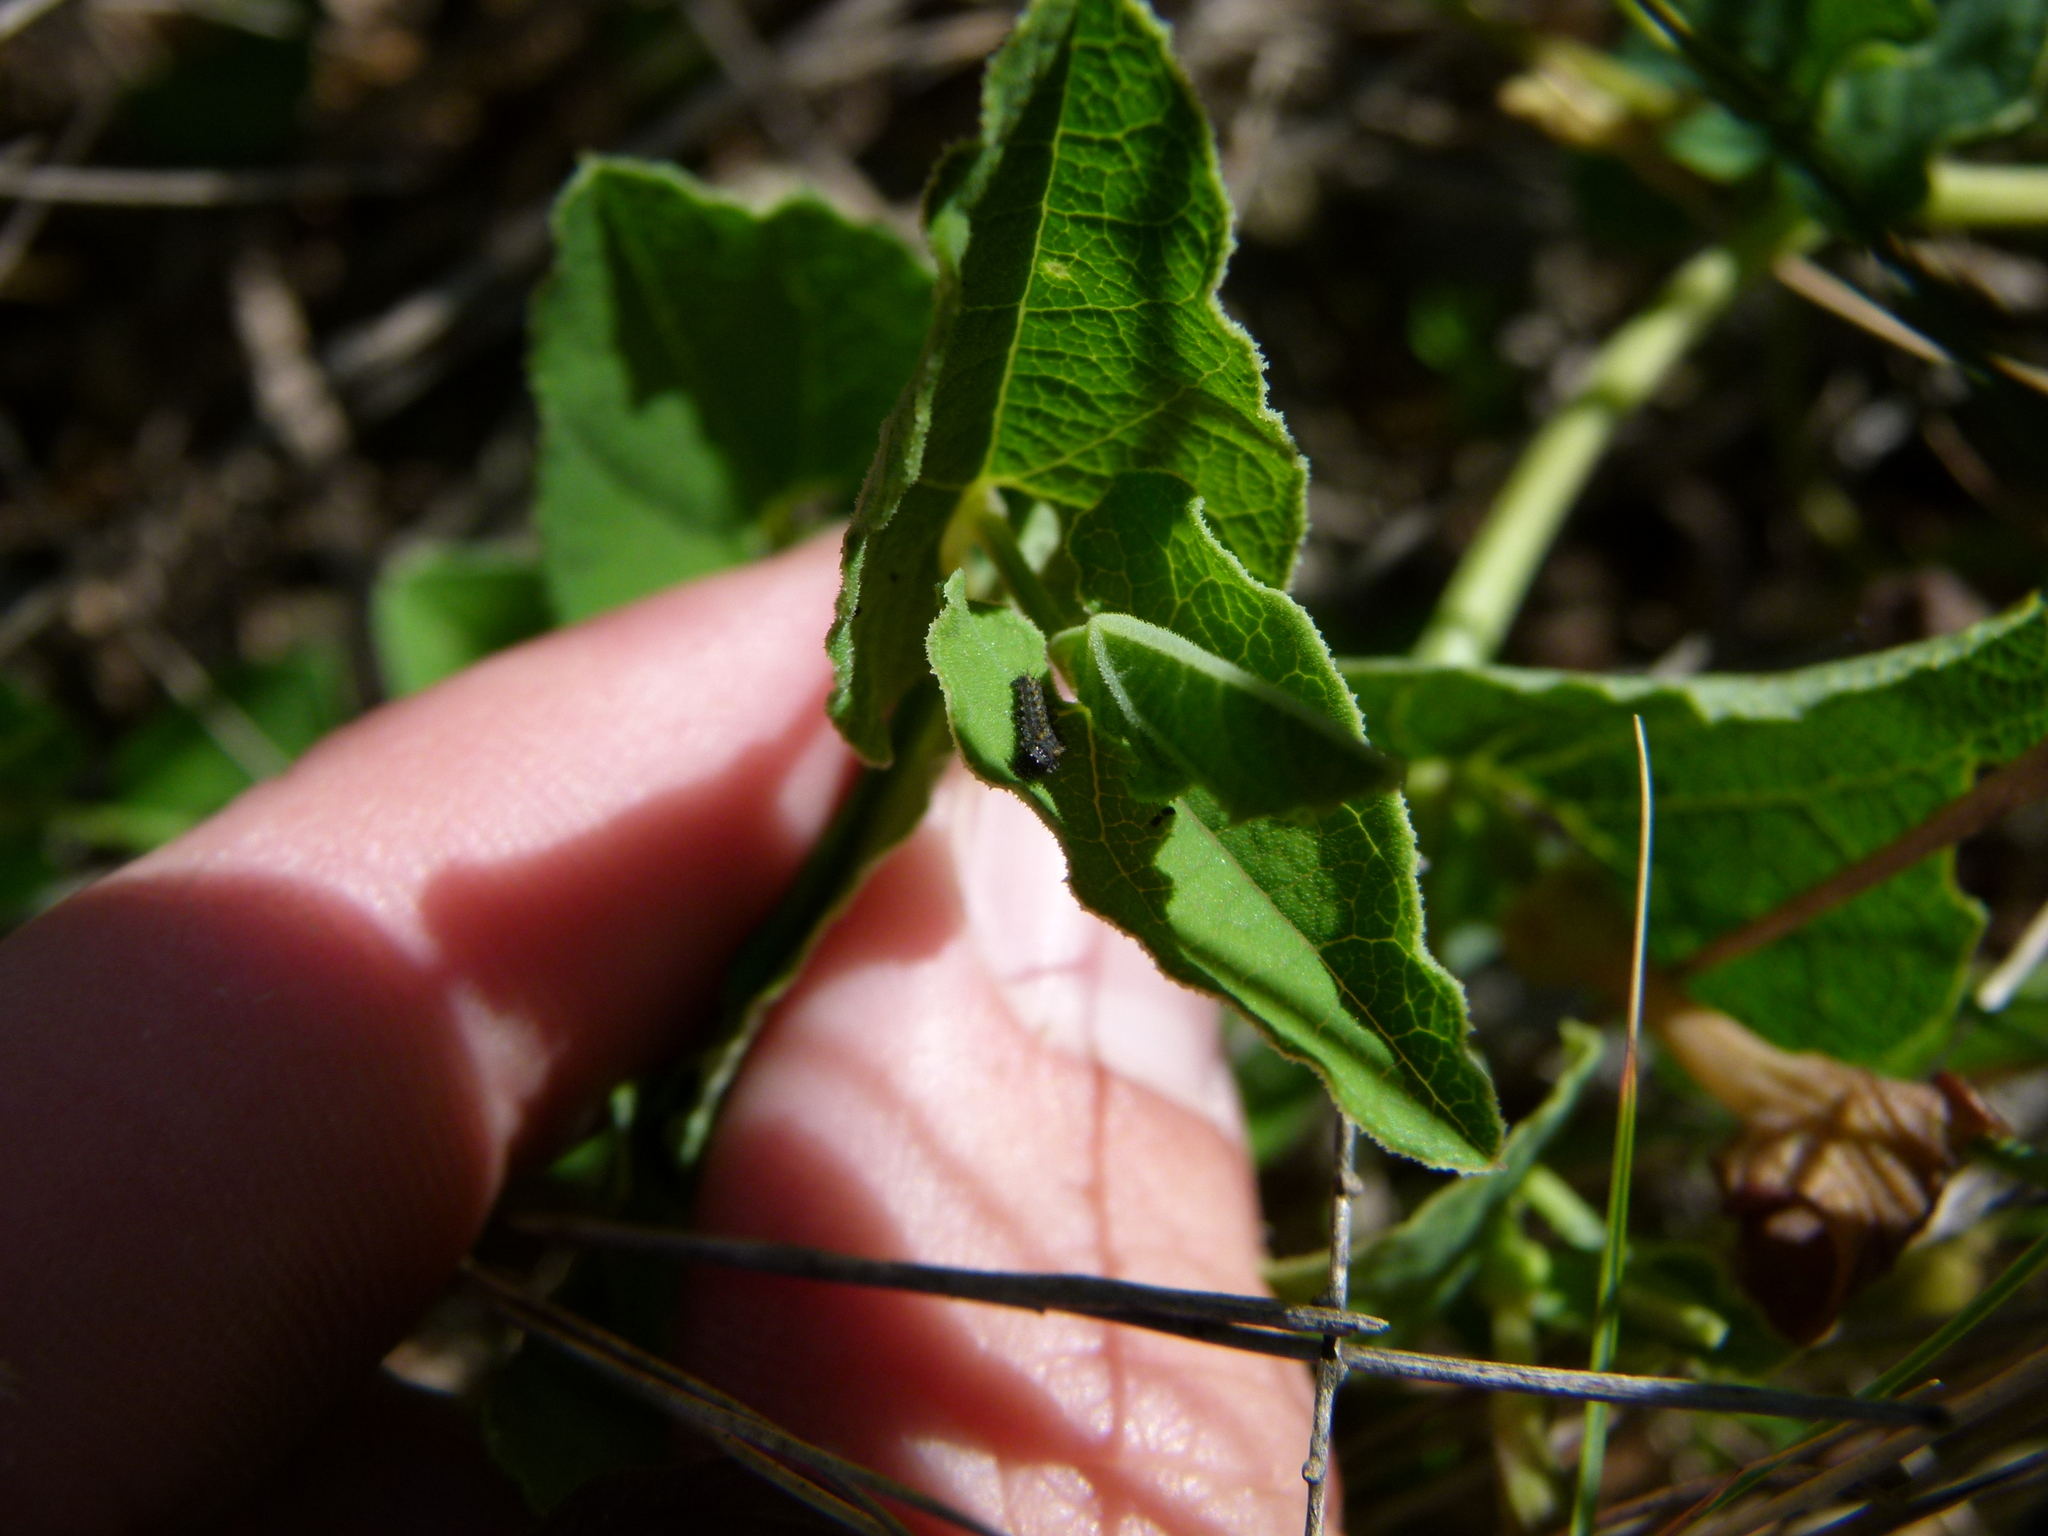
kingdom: Animalia
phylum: Arthropoda
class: Insecta
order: Lepidoptera
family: Papilionidae
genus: Zerynthia
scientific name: Zerynthia rumina
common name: Spanish festoon
